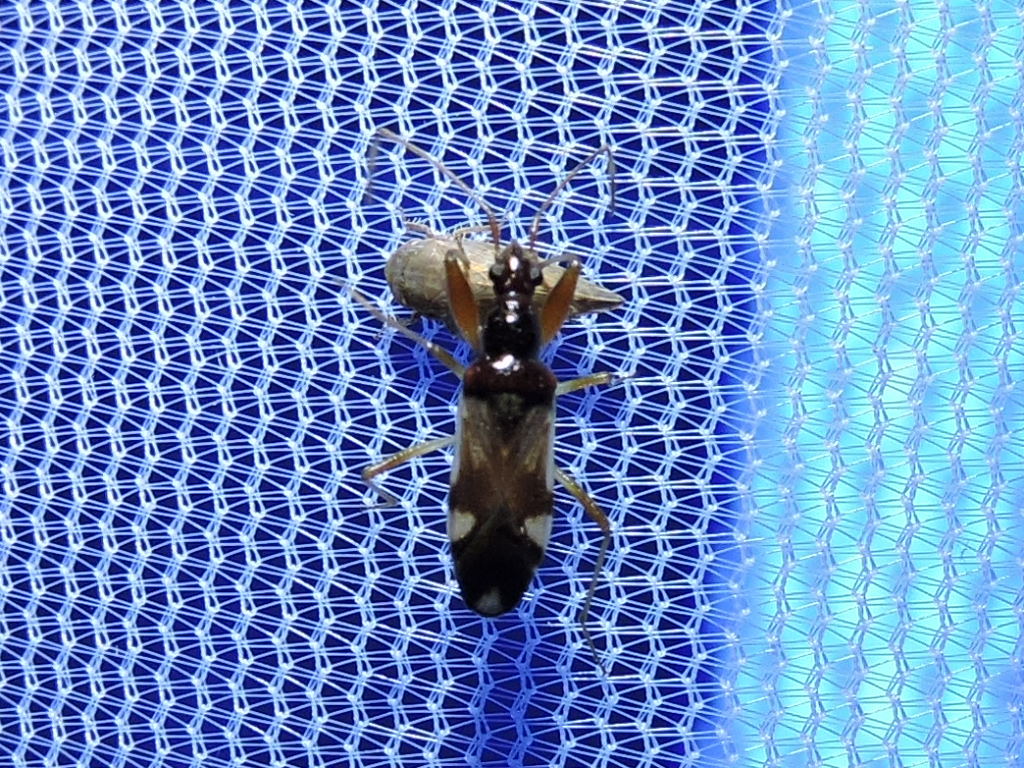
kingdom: Animalia
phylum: Arthropoda
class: Insecta
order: Hemiptera
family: Rhyparochromidae
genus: Pseudopamera
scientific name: Pseudopamera aurivilliana
